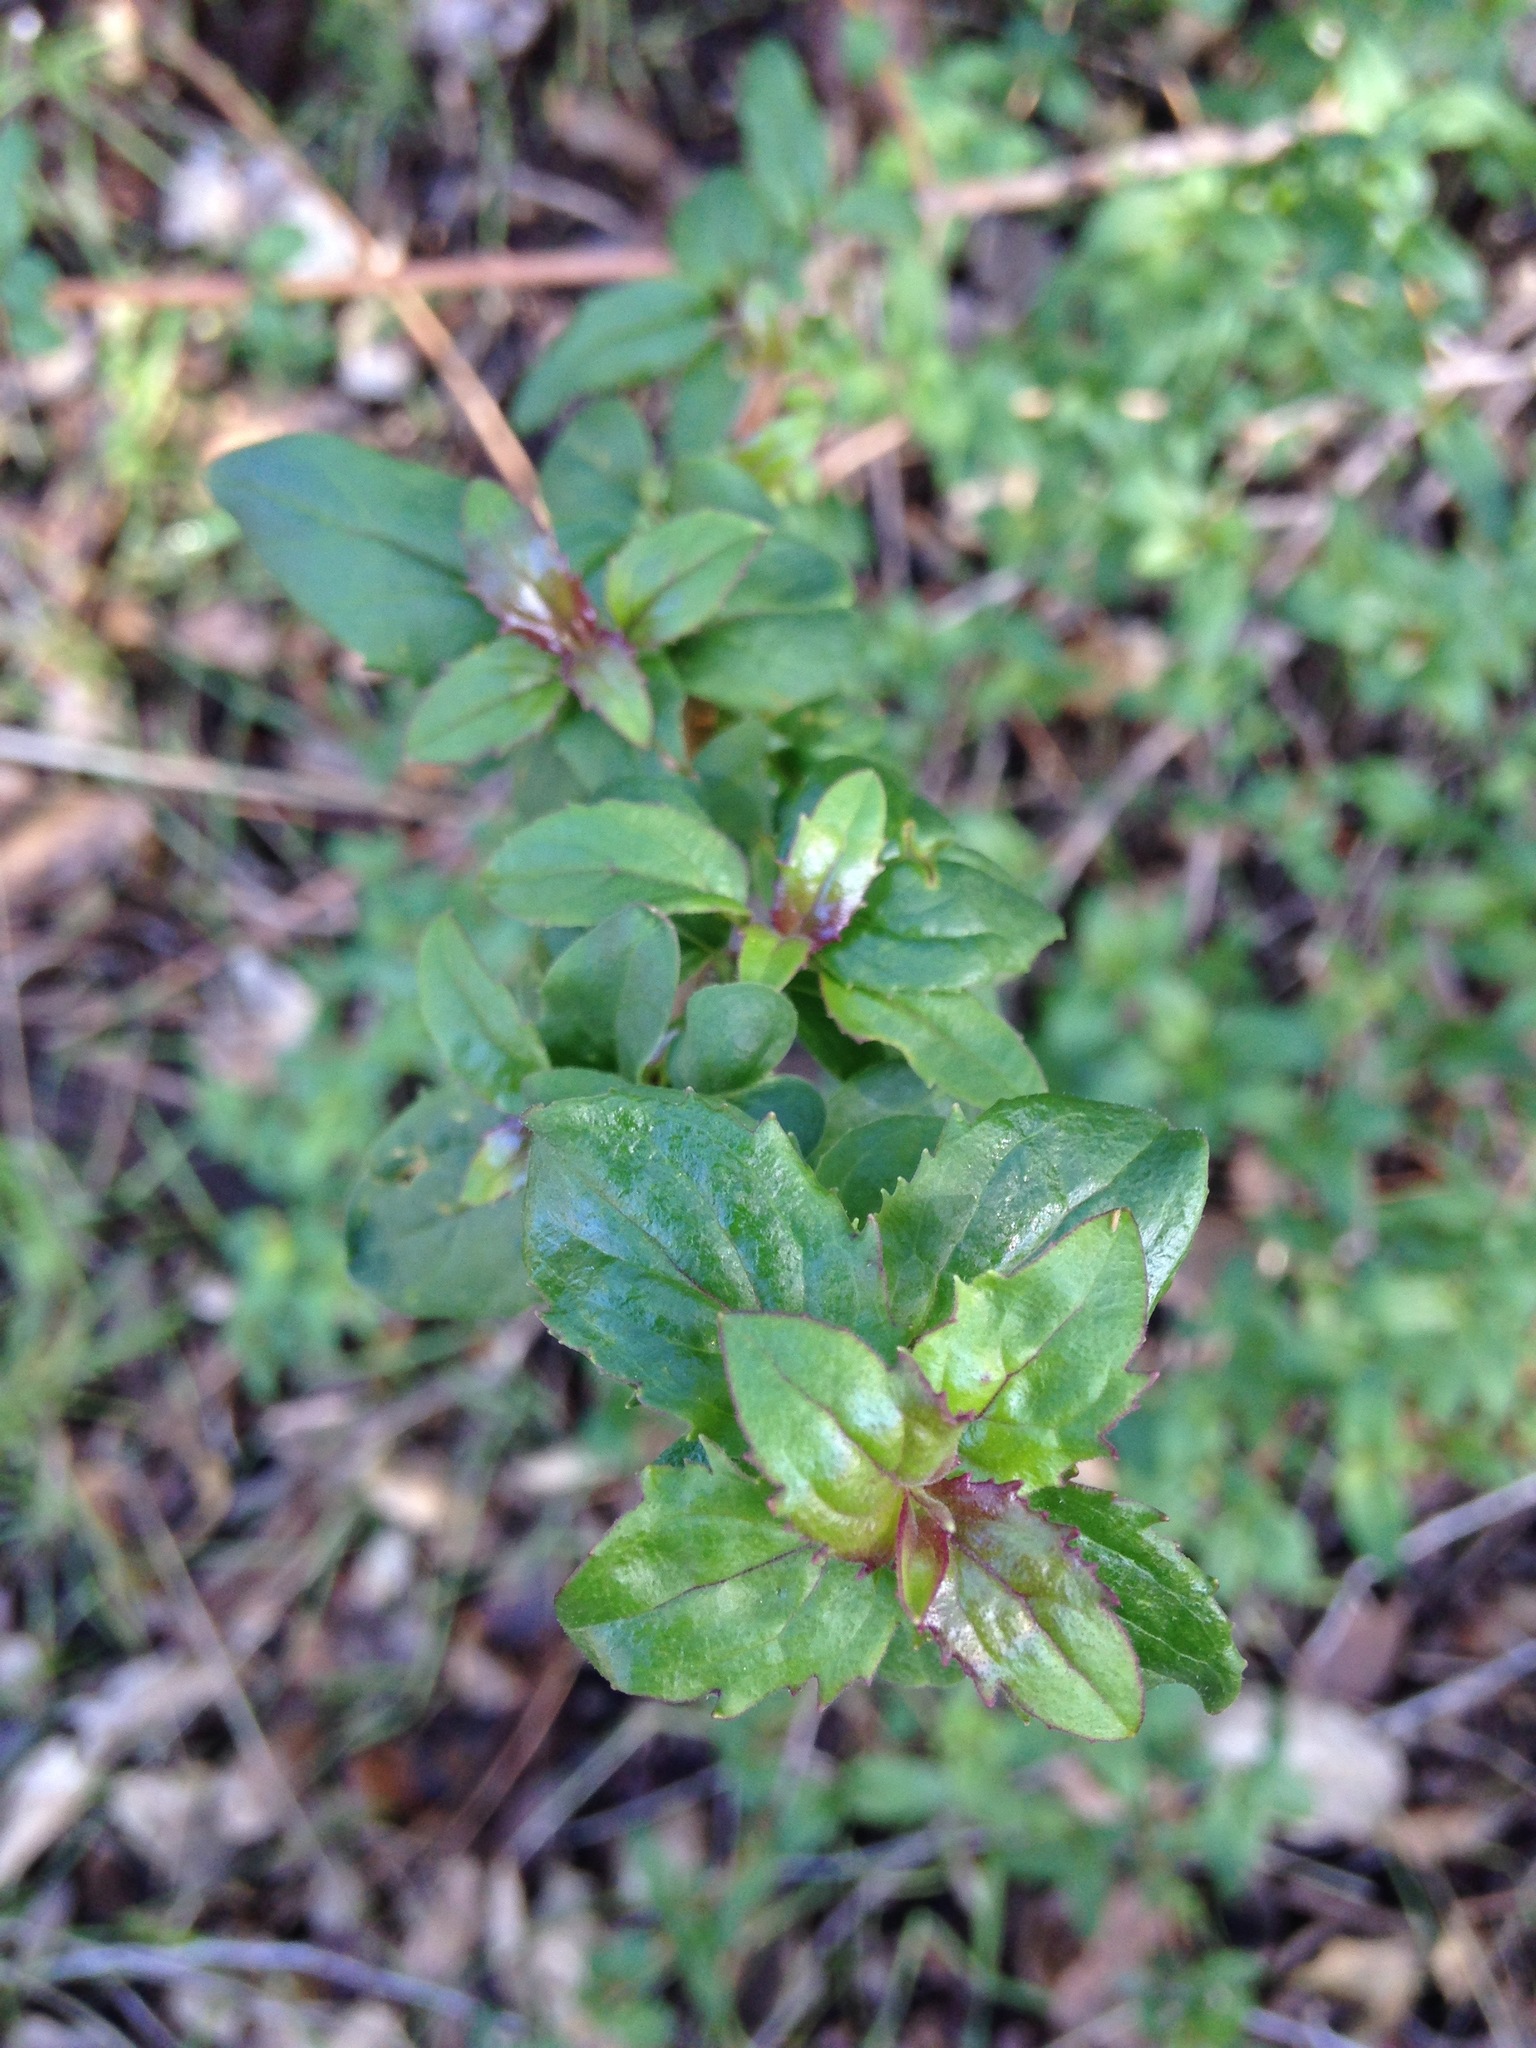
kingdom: Plantae
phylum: Tracheophyta
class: Magnoliopsida
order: Lamiales
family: Plantaginaceae
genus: Keckiella
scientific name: Keckiella cordifolia
